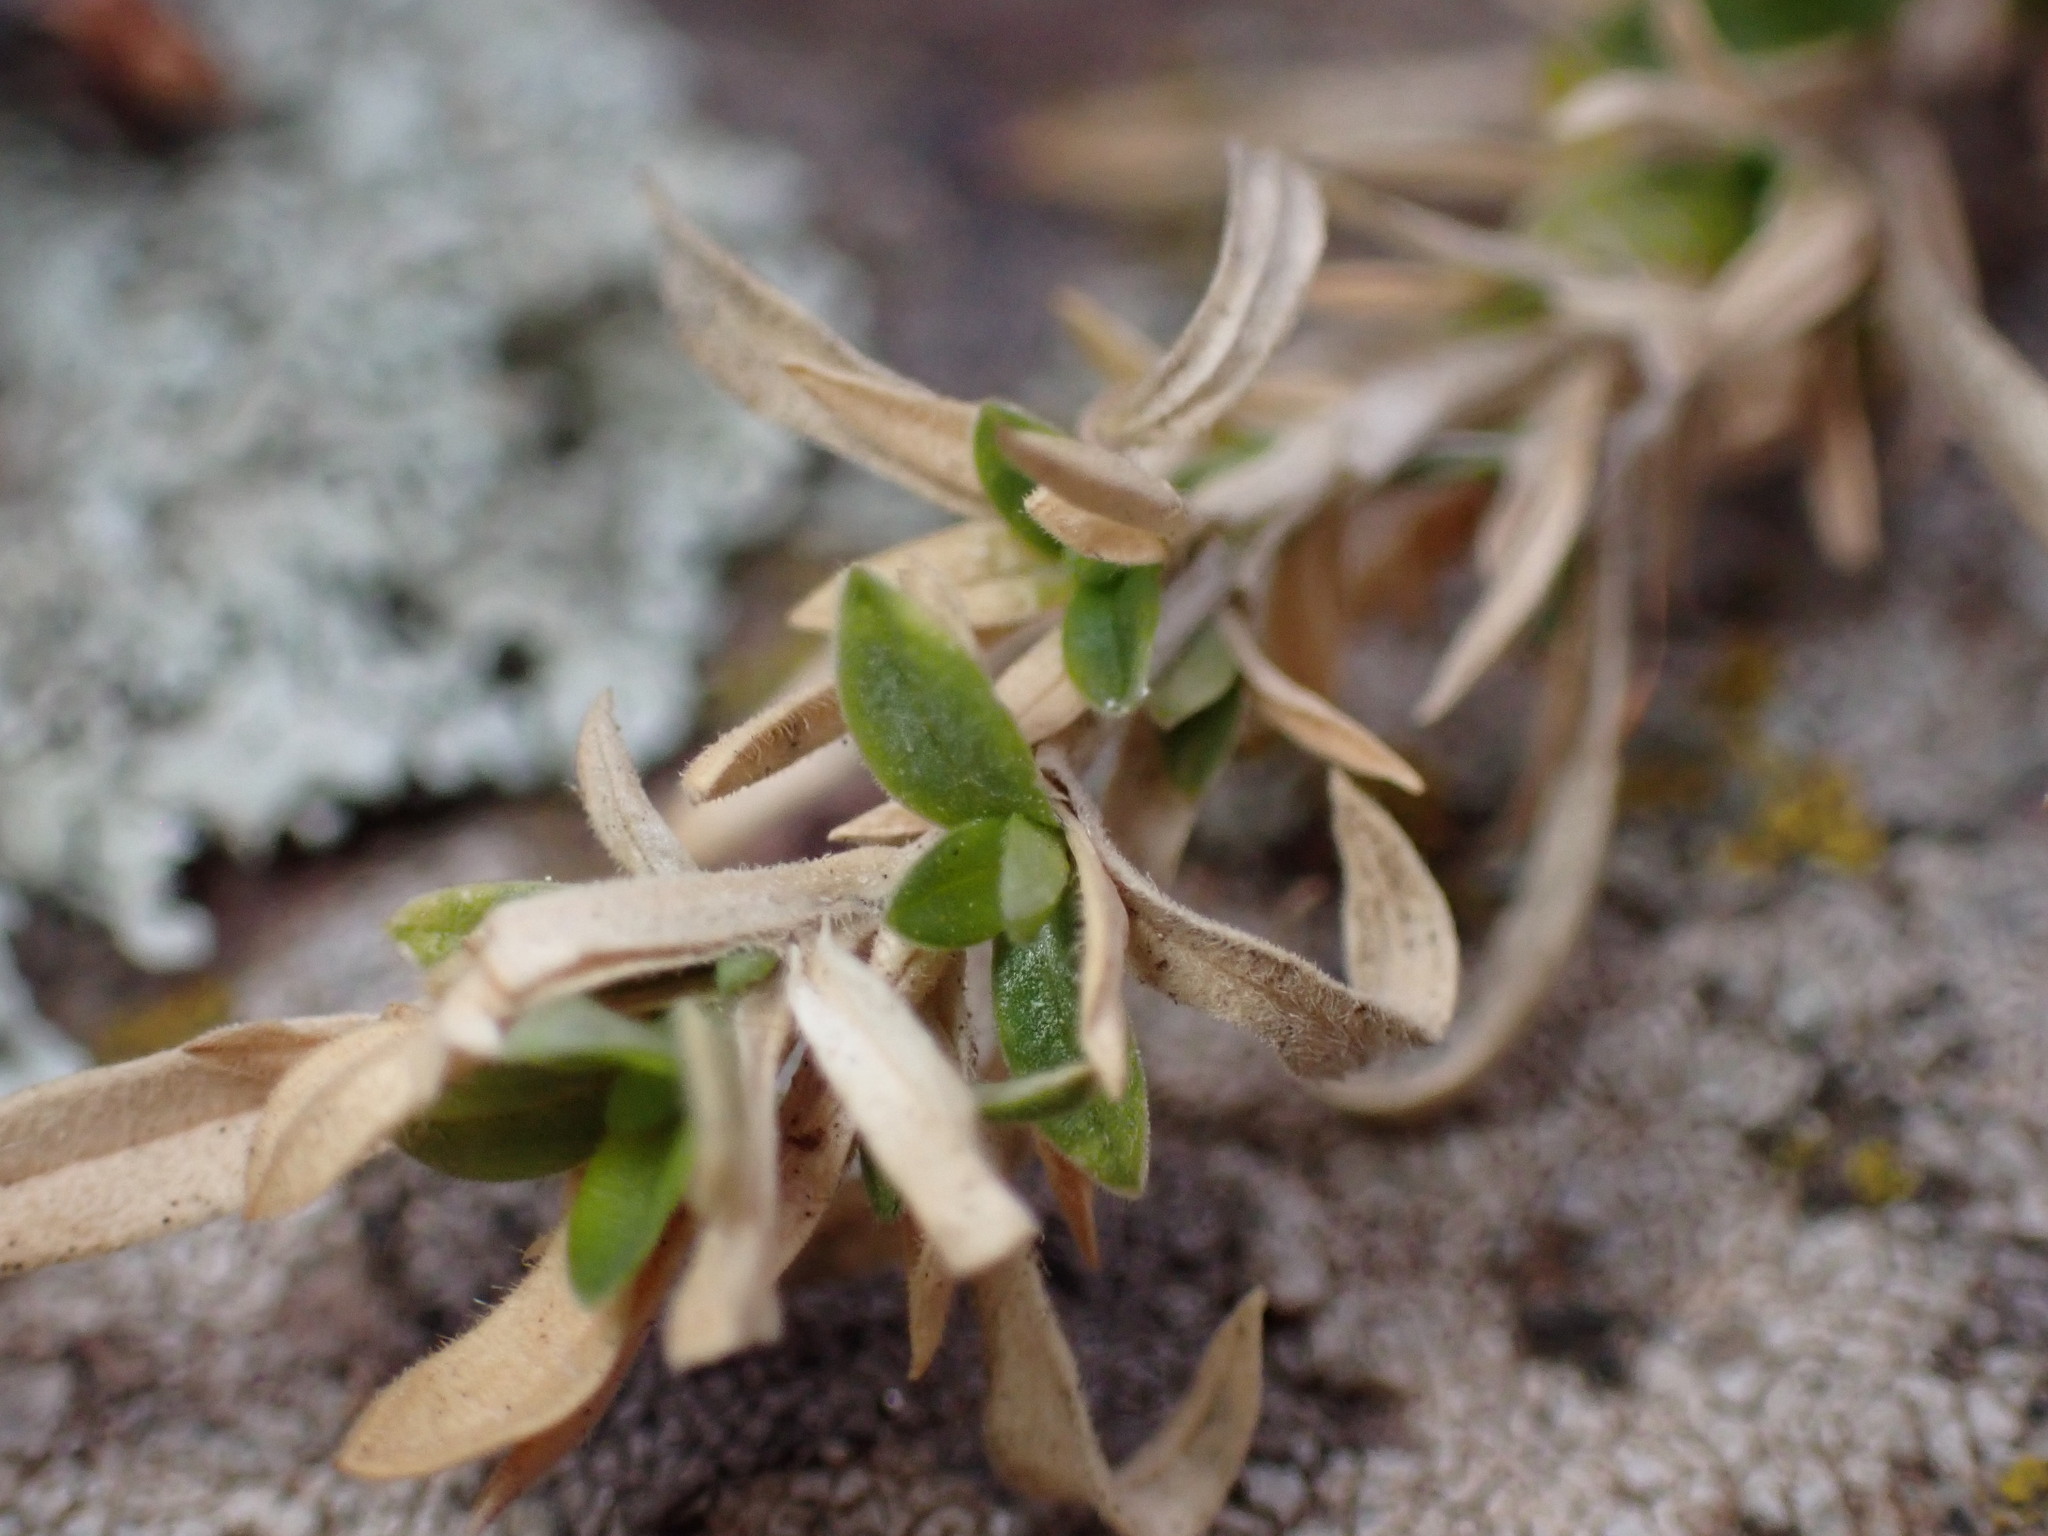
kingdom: Plantae
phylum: Tracheophyta
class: Magnoliopsida
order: Caryophyllales
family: Caryophyllaceae
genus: Cerastium
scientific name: Cerastium elongatum
